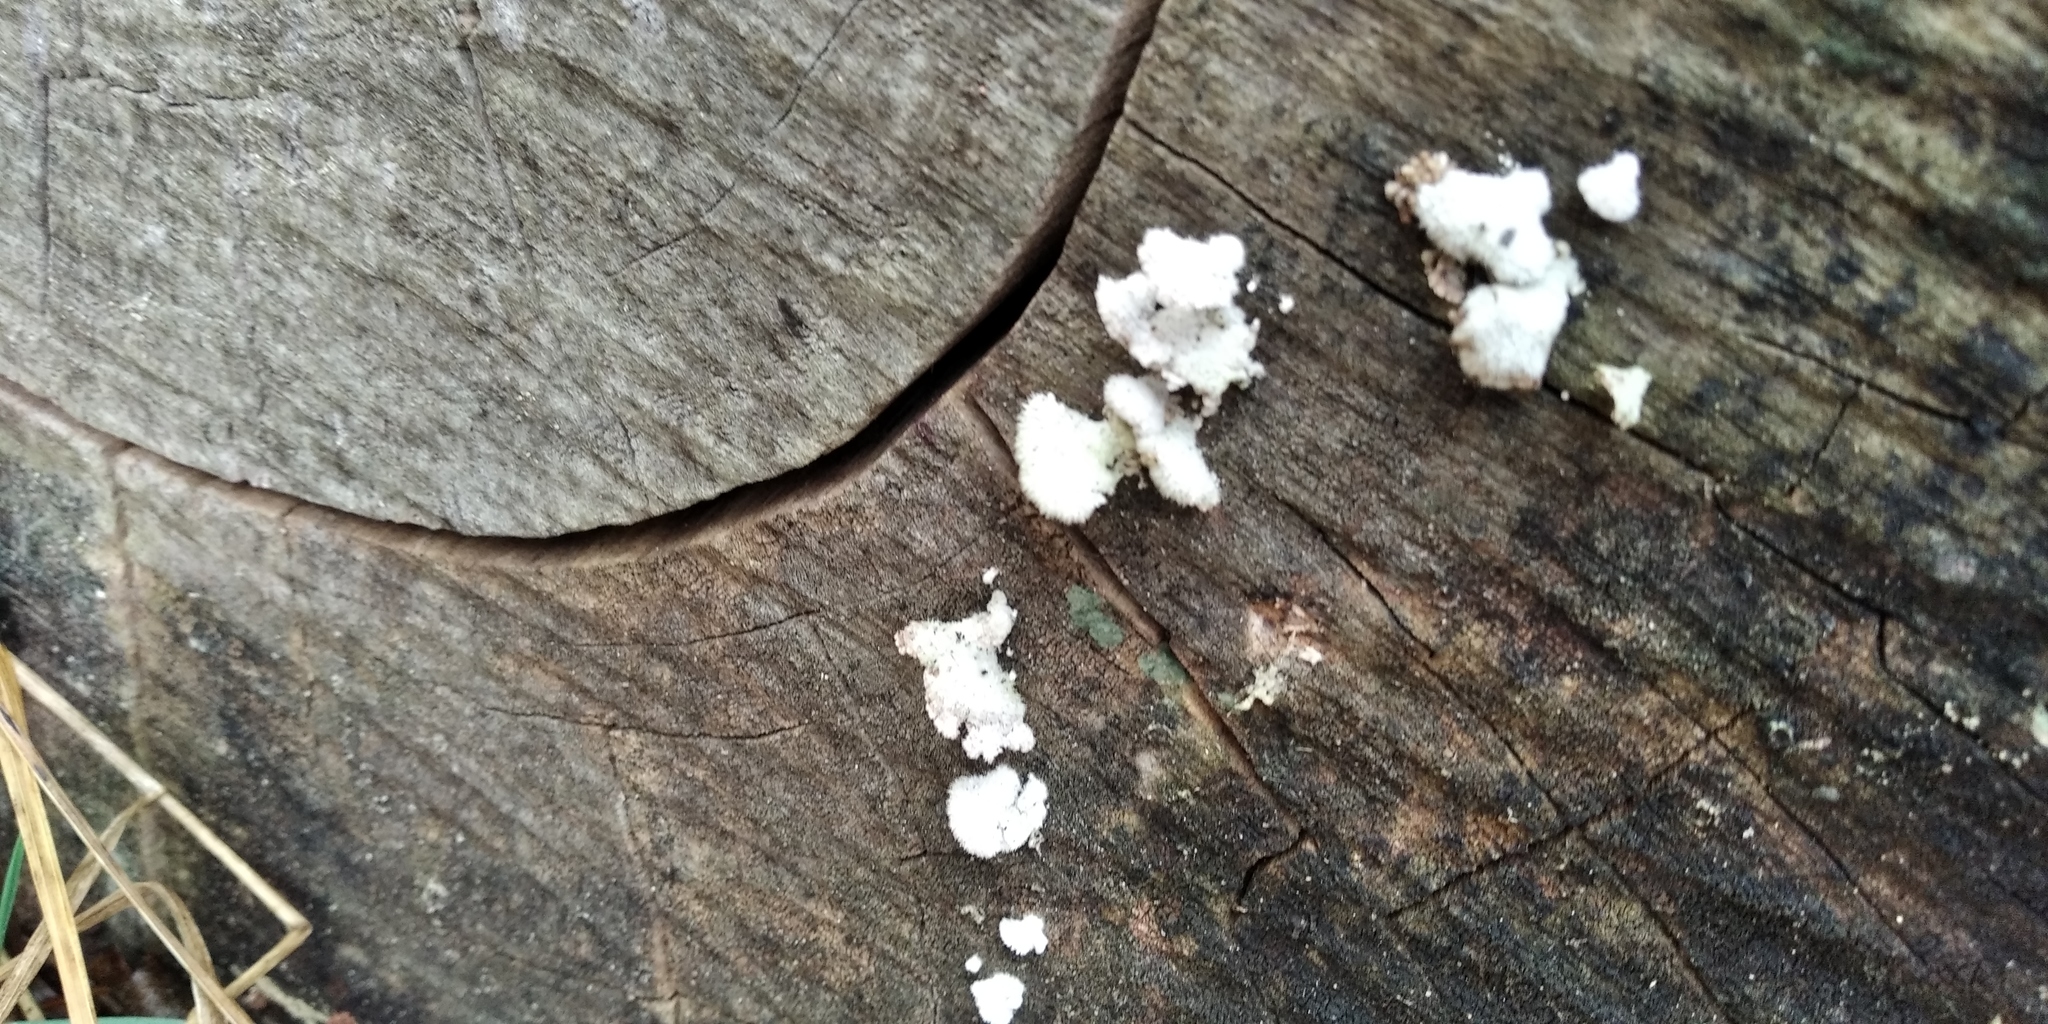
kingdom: Fungi
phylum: Basidiomycota
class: Agaricomycetes
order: Agaricales
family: Schizophyllaceae
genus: Schizophyllum
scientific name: Schizophyllum commune
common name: Common porecrust
